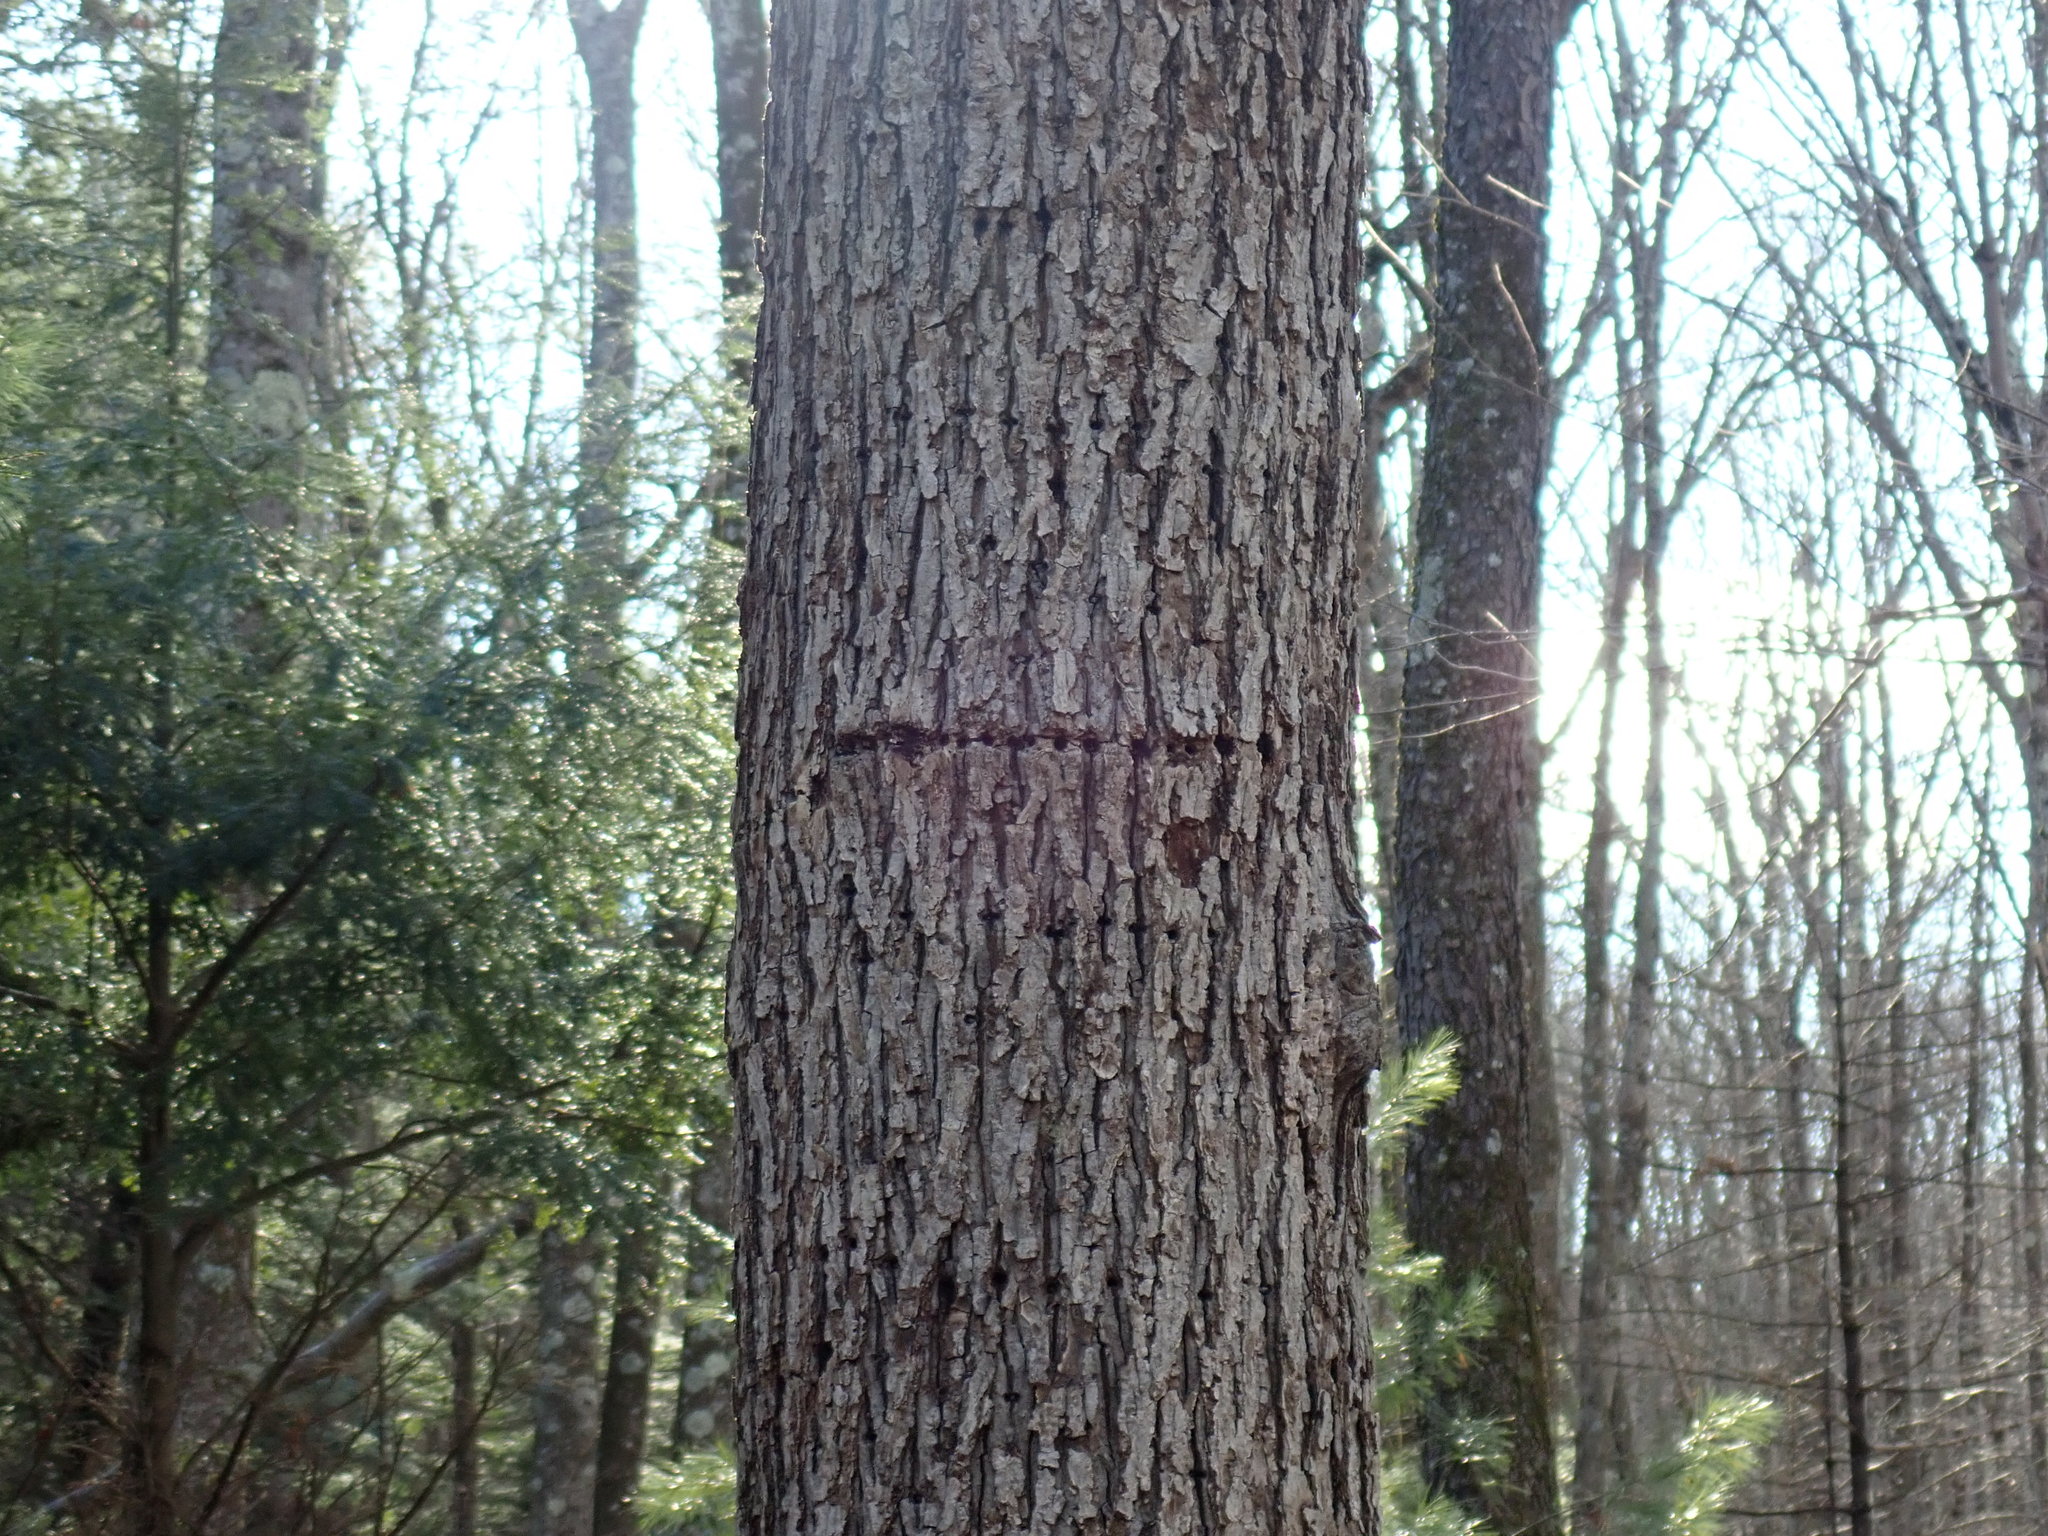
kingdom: Animalia
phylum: Chordata
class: Aves
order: Piciformes
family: Picidae
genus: Sphyrapicus
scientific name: Sphyrapicus varius
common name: Yellow-bellied sapsucker
